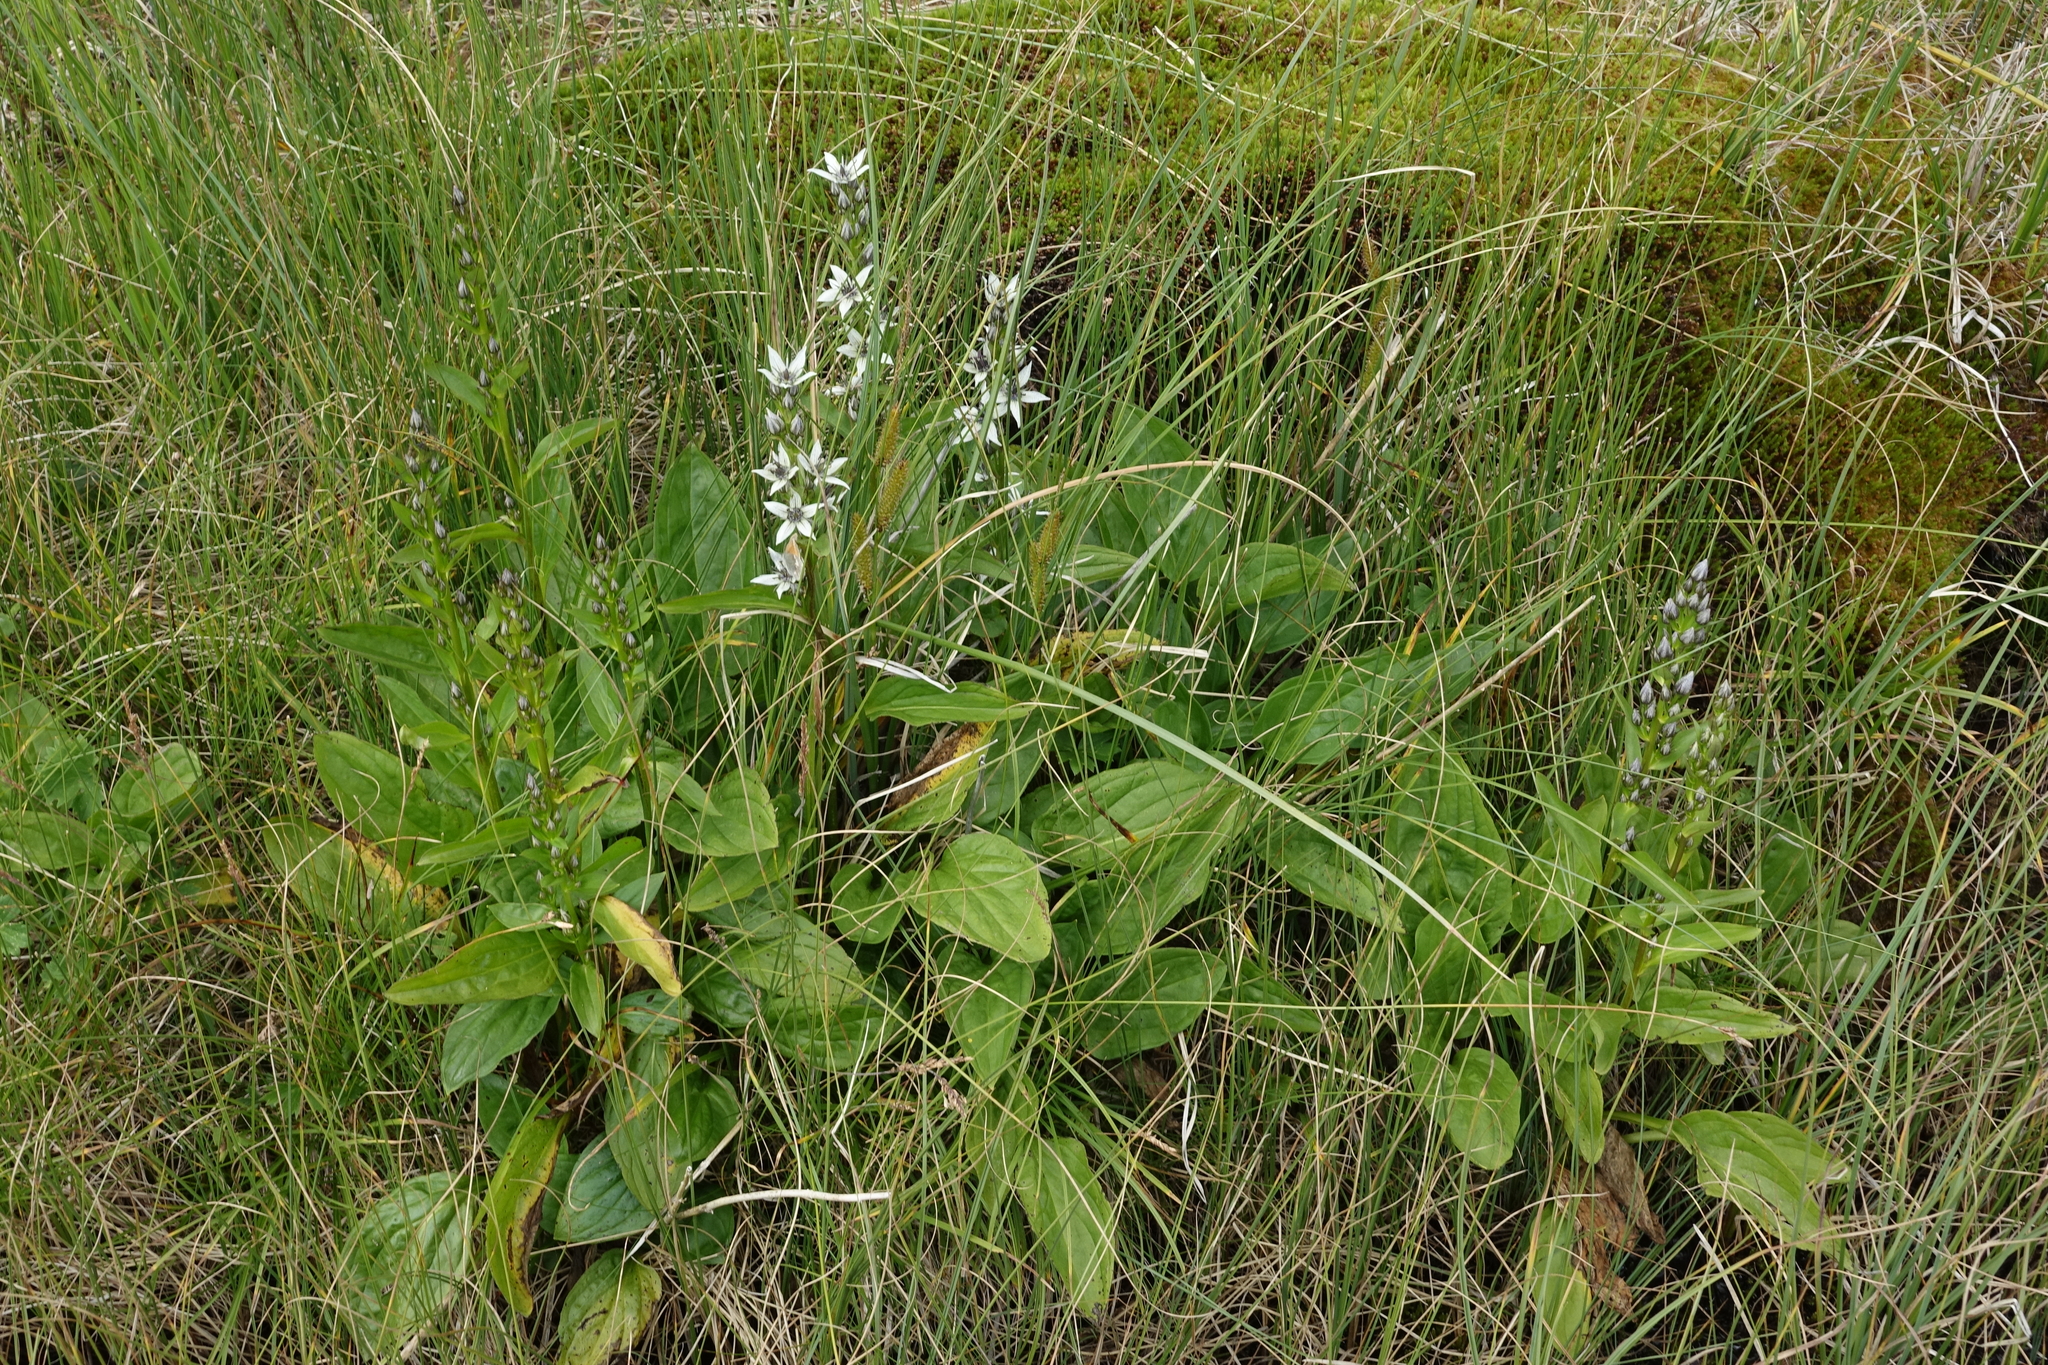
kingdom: Plantae
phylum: Tracheophyta
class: Magnoliopsida
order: Gentianales
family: Gentianaceae
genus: Swertia
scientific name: Swertia iberica
